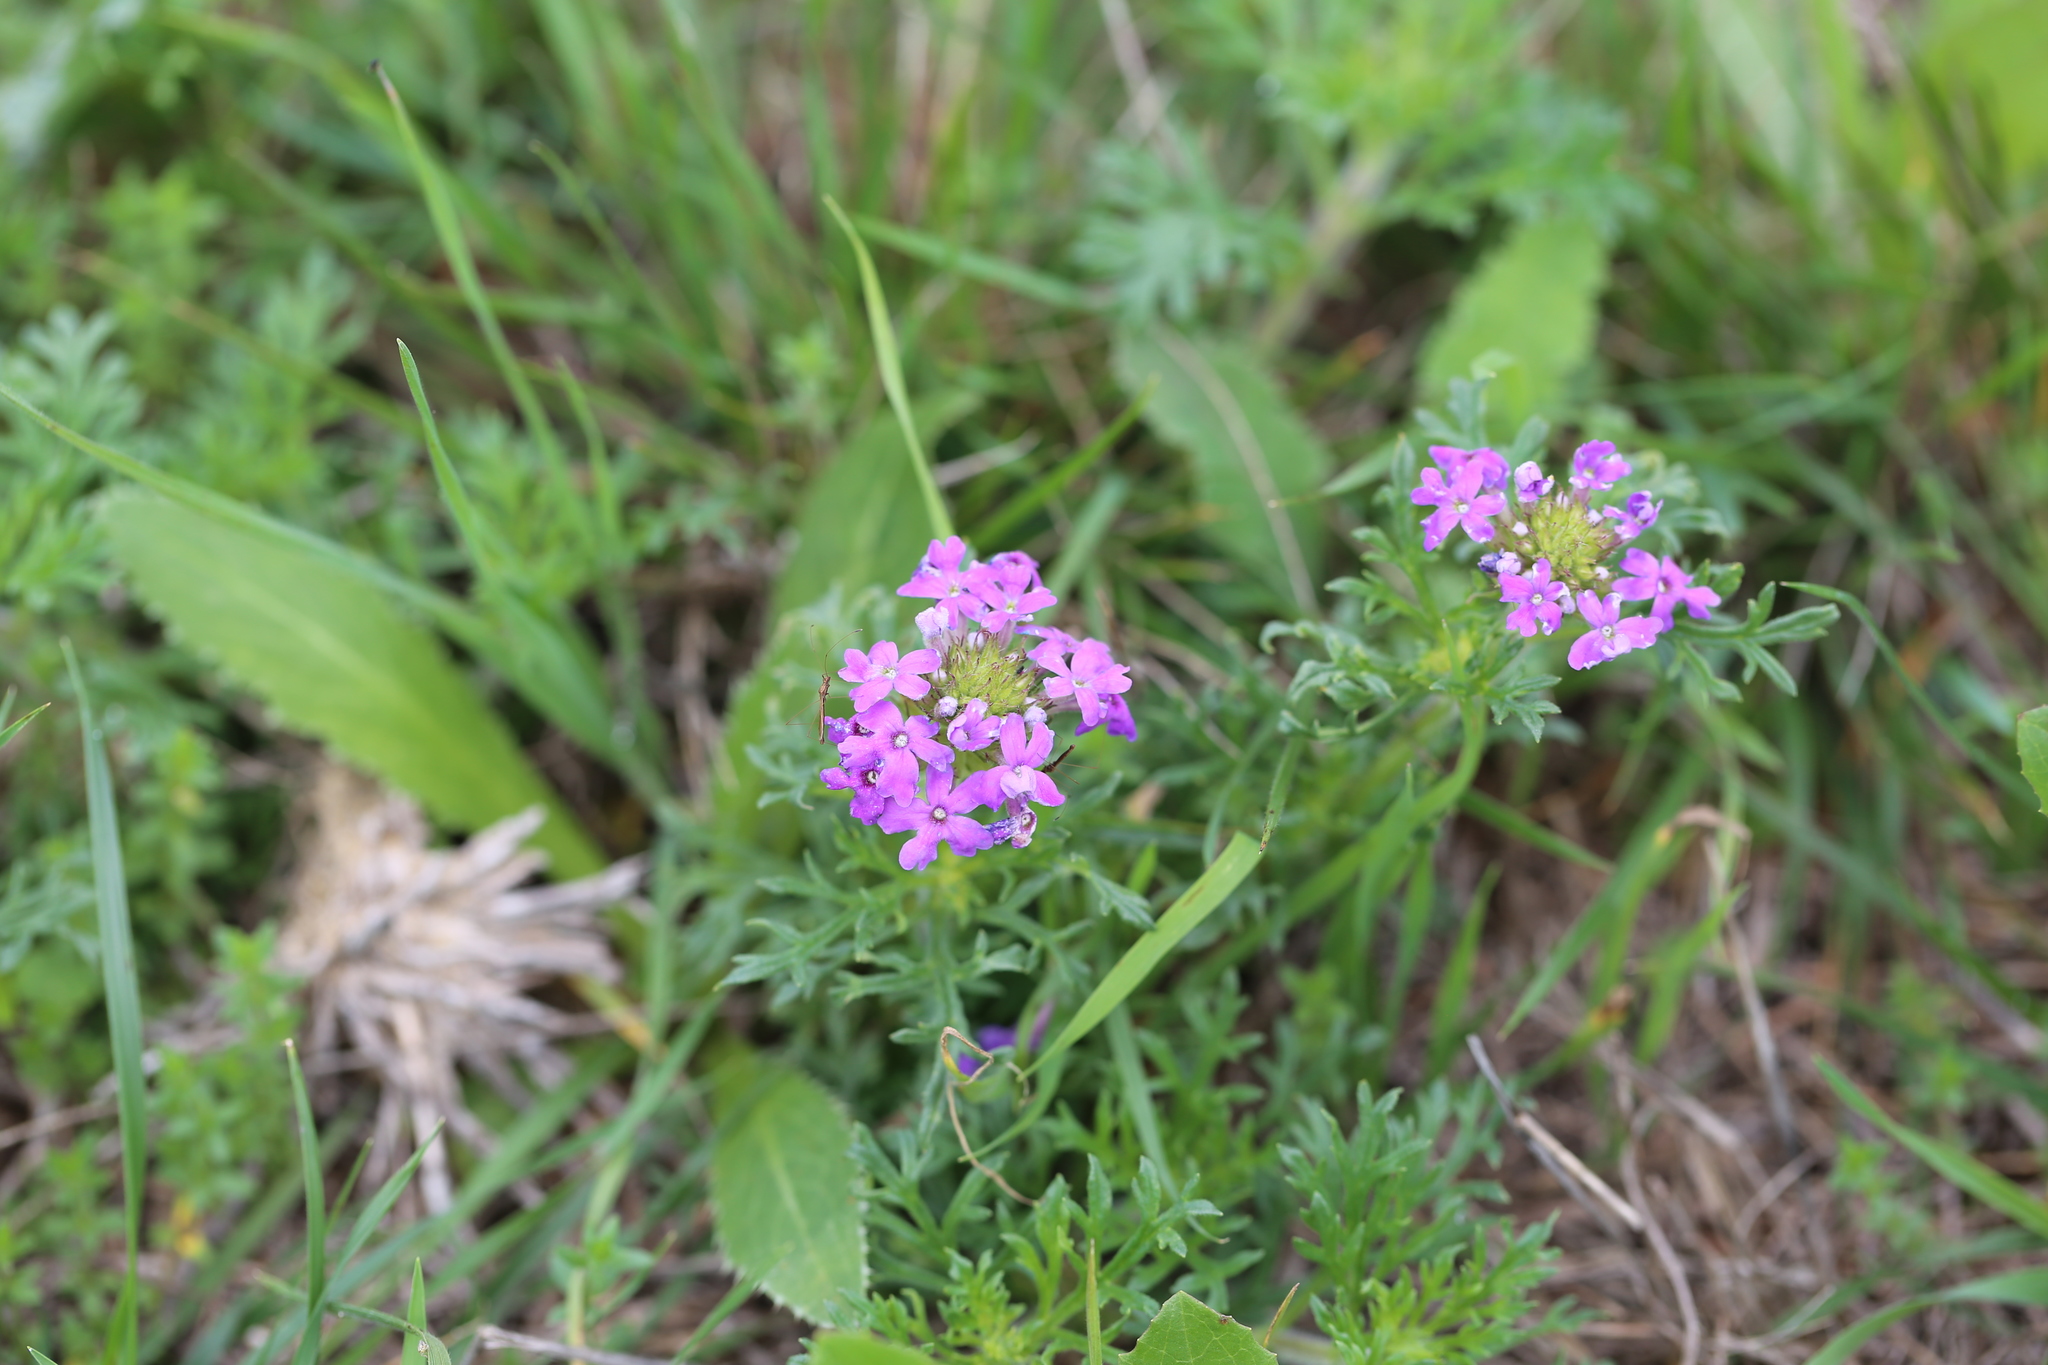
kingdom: Plantae
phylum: Tracheophyta
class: Magnoliopsida
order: Lamiales
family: Verbenaceae
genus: Verbena
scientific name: Verbena
